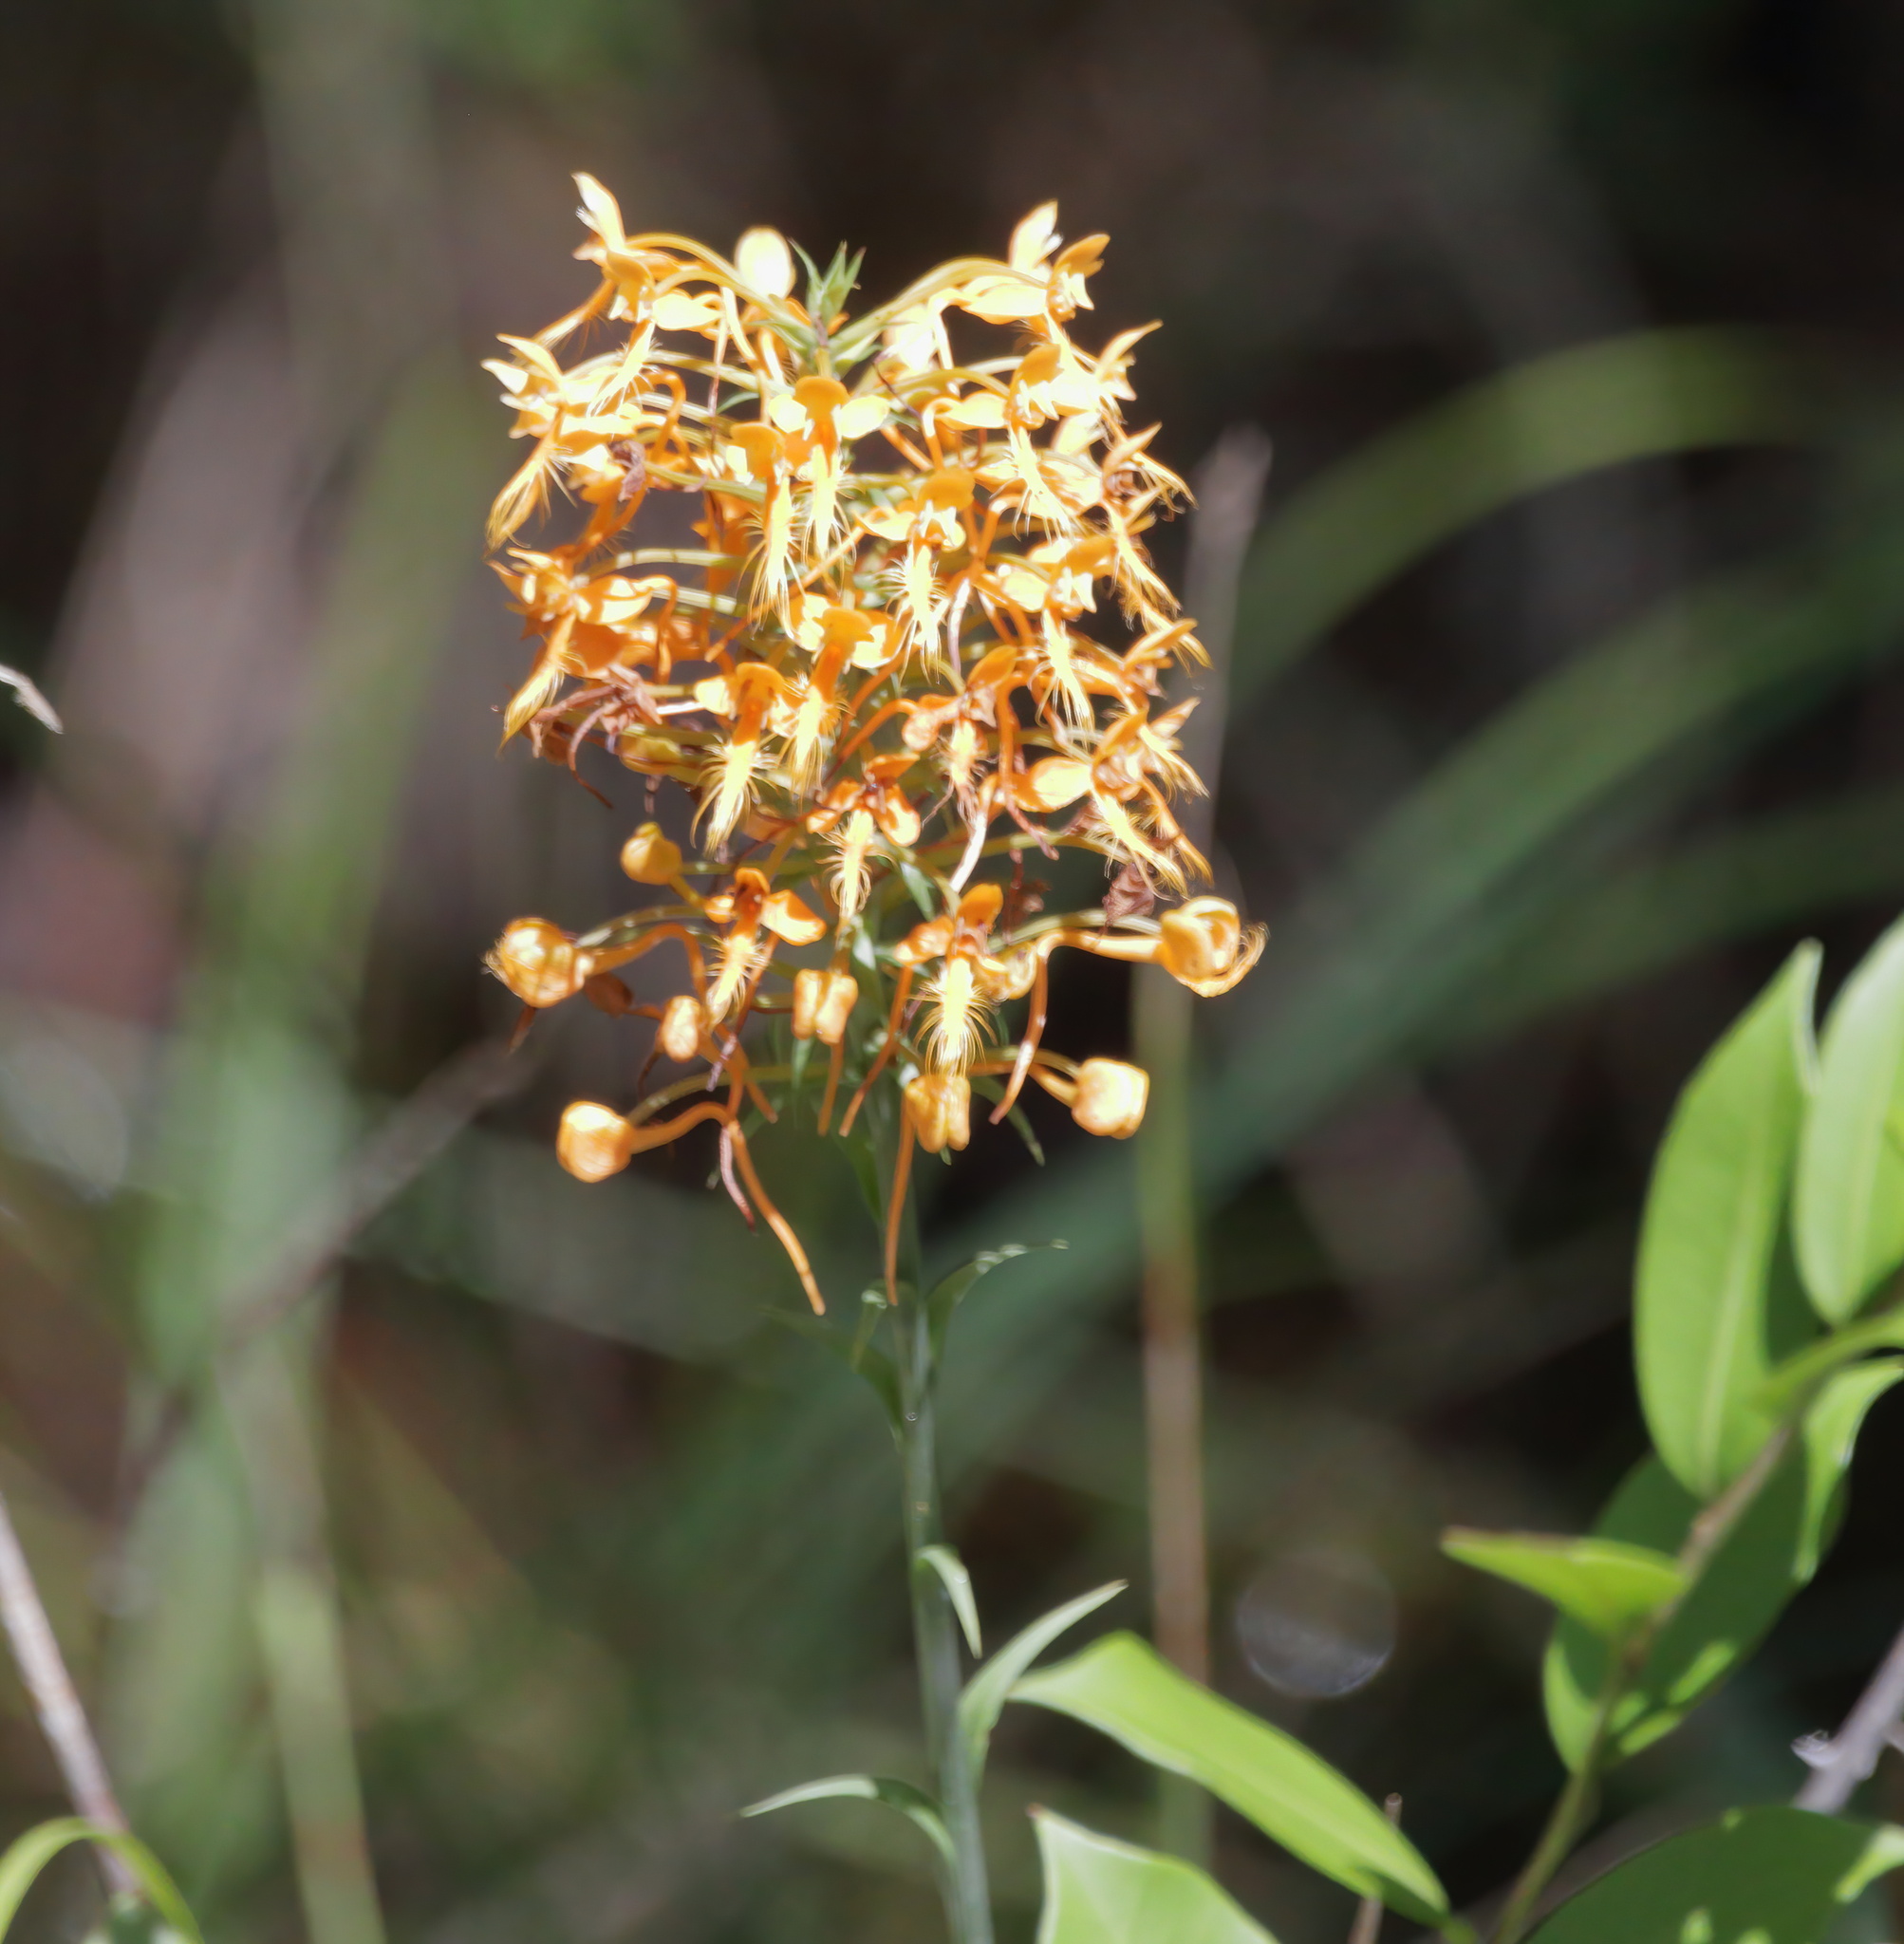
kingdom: Plantae
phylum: Tracheophyta
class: Liliopsida
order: Asparagales
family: Orchidaceae
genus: Platanthera
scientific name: Platanthera ciliaris
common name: Yellow fringed orchid
